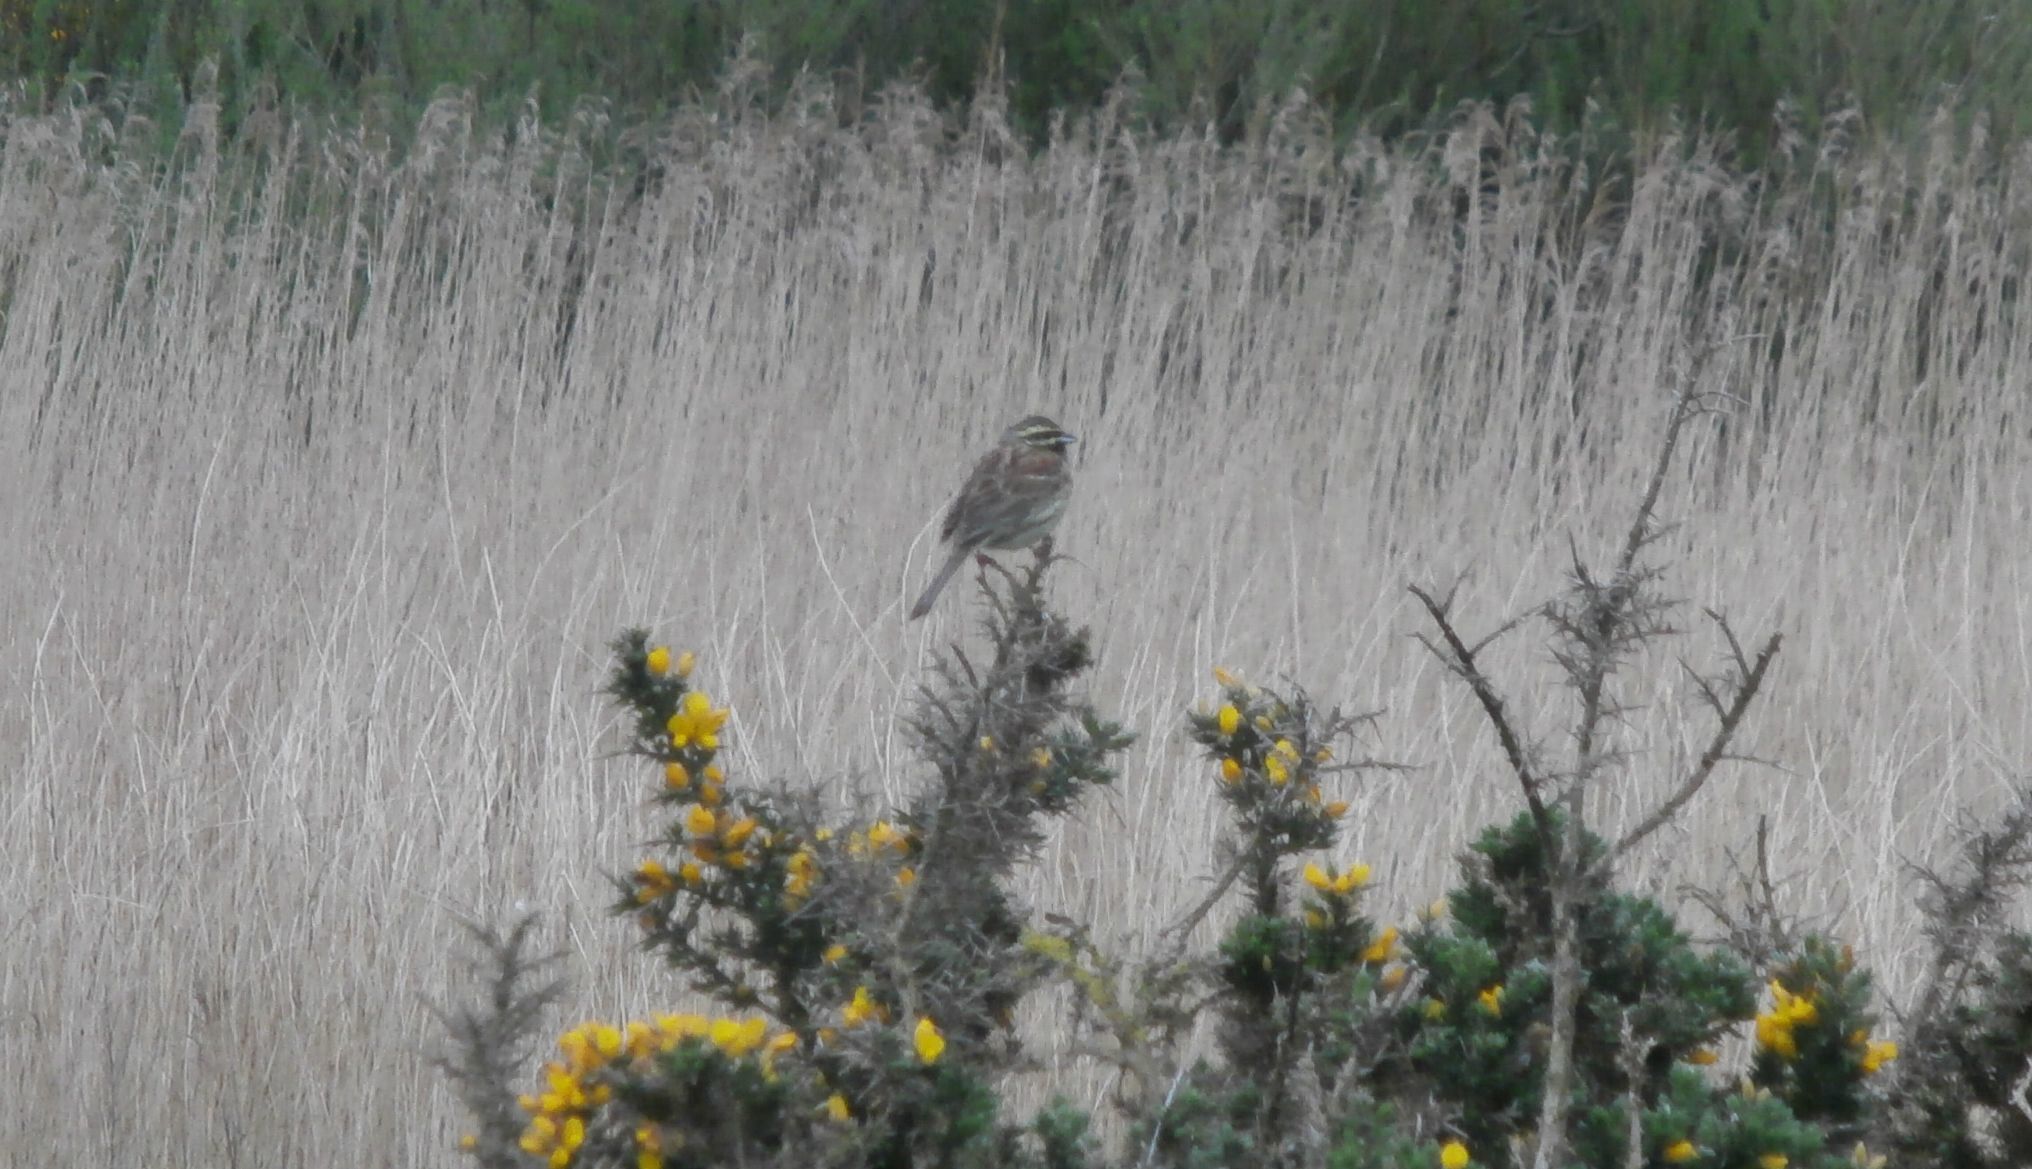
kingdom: Animalia
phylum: Chordata
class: Aves
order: Passeriformes
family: Emberizidae
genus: Emberiza
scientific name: Emberiza cirlus
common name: Cirl bunting
